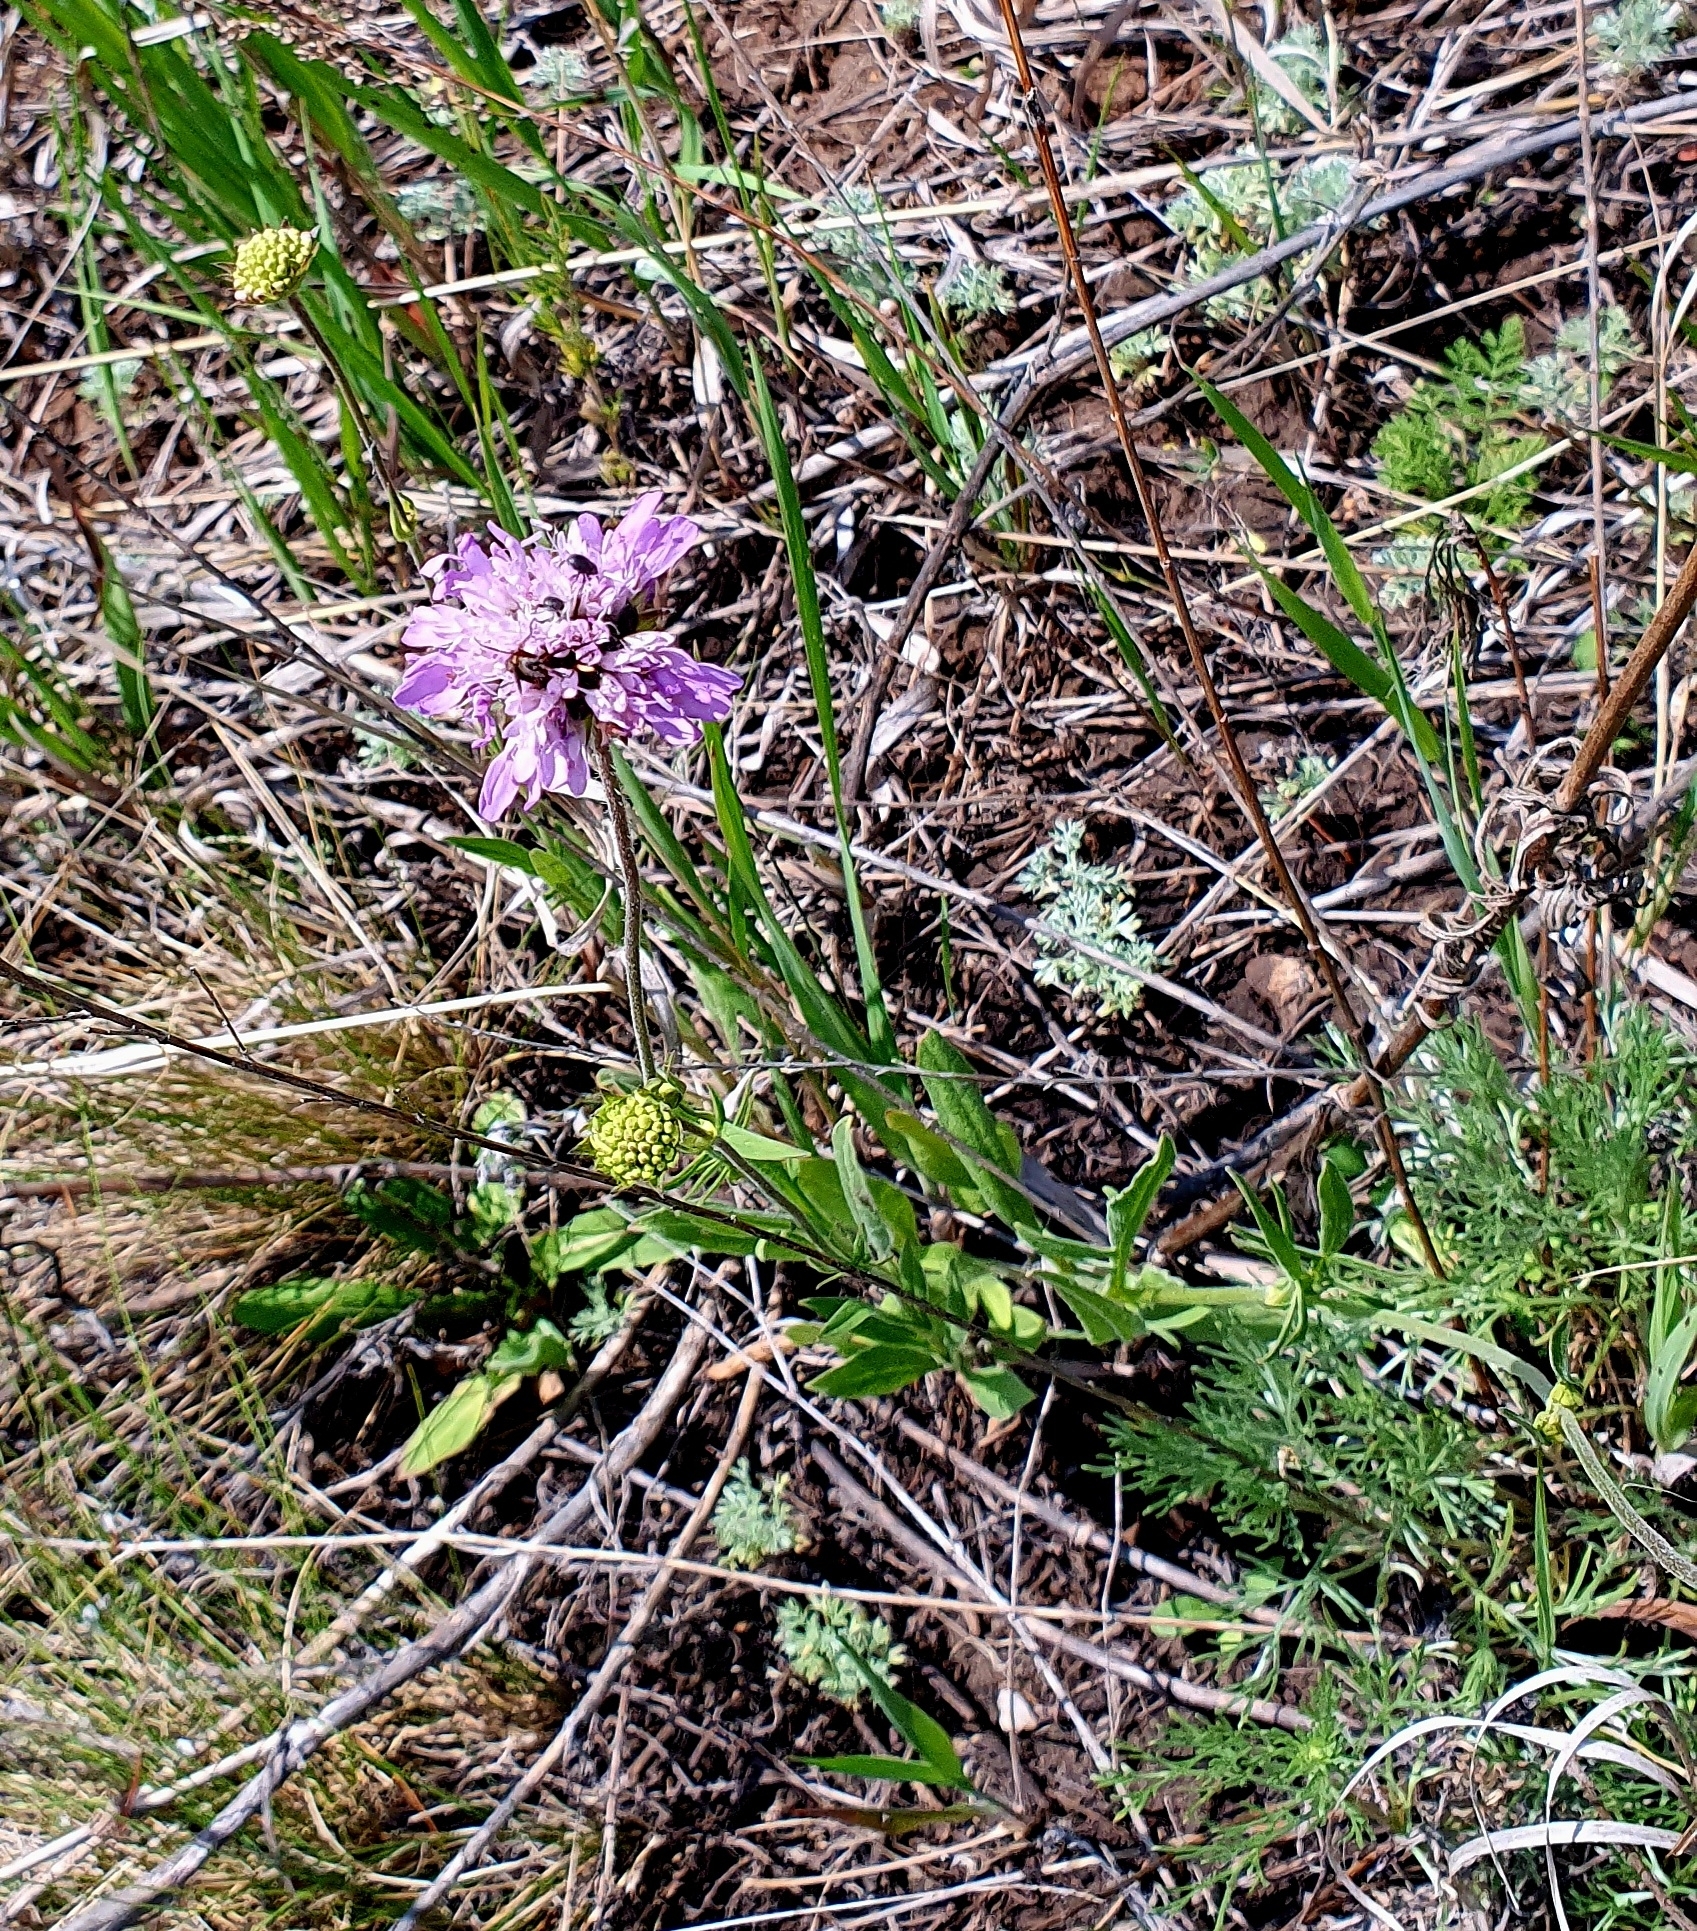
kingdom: Plantae
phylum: Tracheophyta
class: Magnoliopsida
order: Dipsacales
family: Caprifoliaceae
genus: Knautia
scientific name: Knautia arvensis
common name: Field scabiosa
